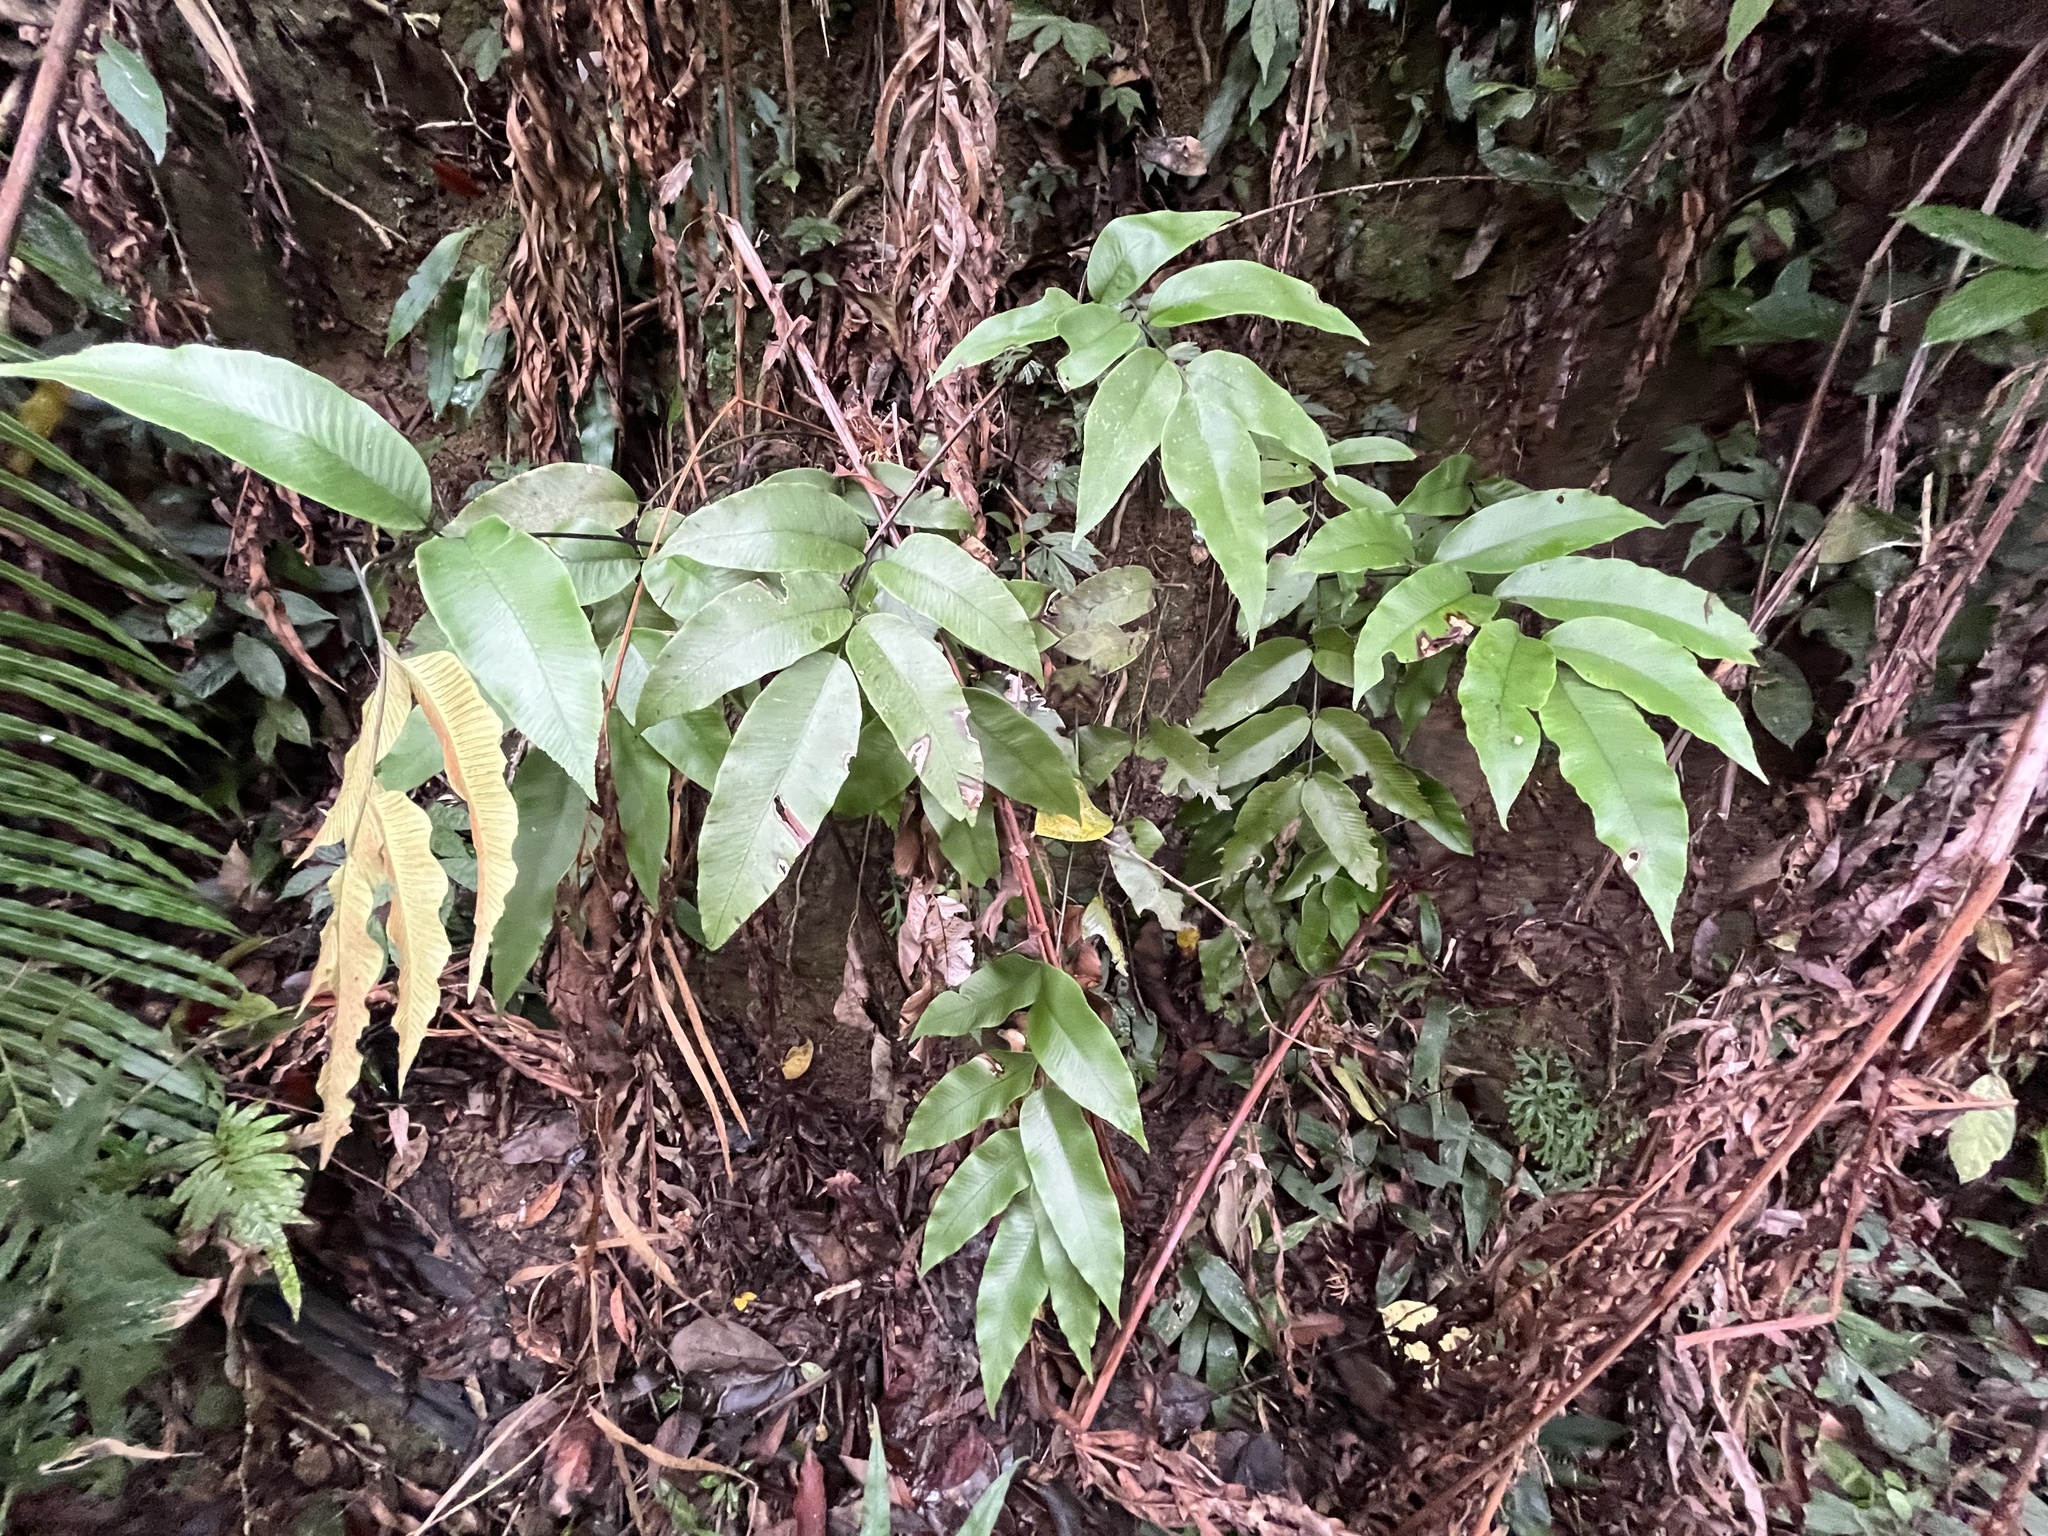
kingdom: Plantae
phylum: Tracheophyta
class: Polypodiopsida
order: Polypodiales
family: Athyriaceae
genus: Diplazium
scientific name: Diplazium lineolatum
